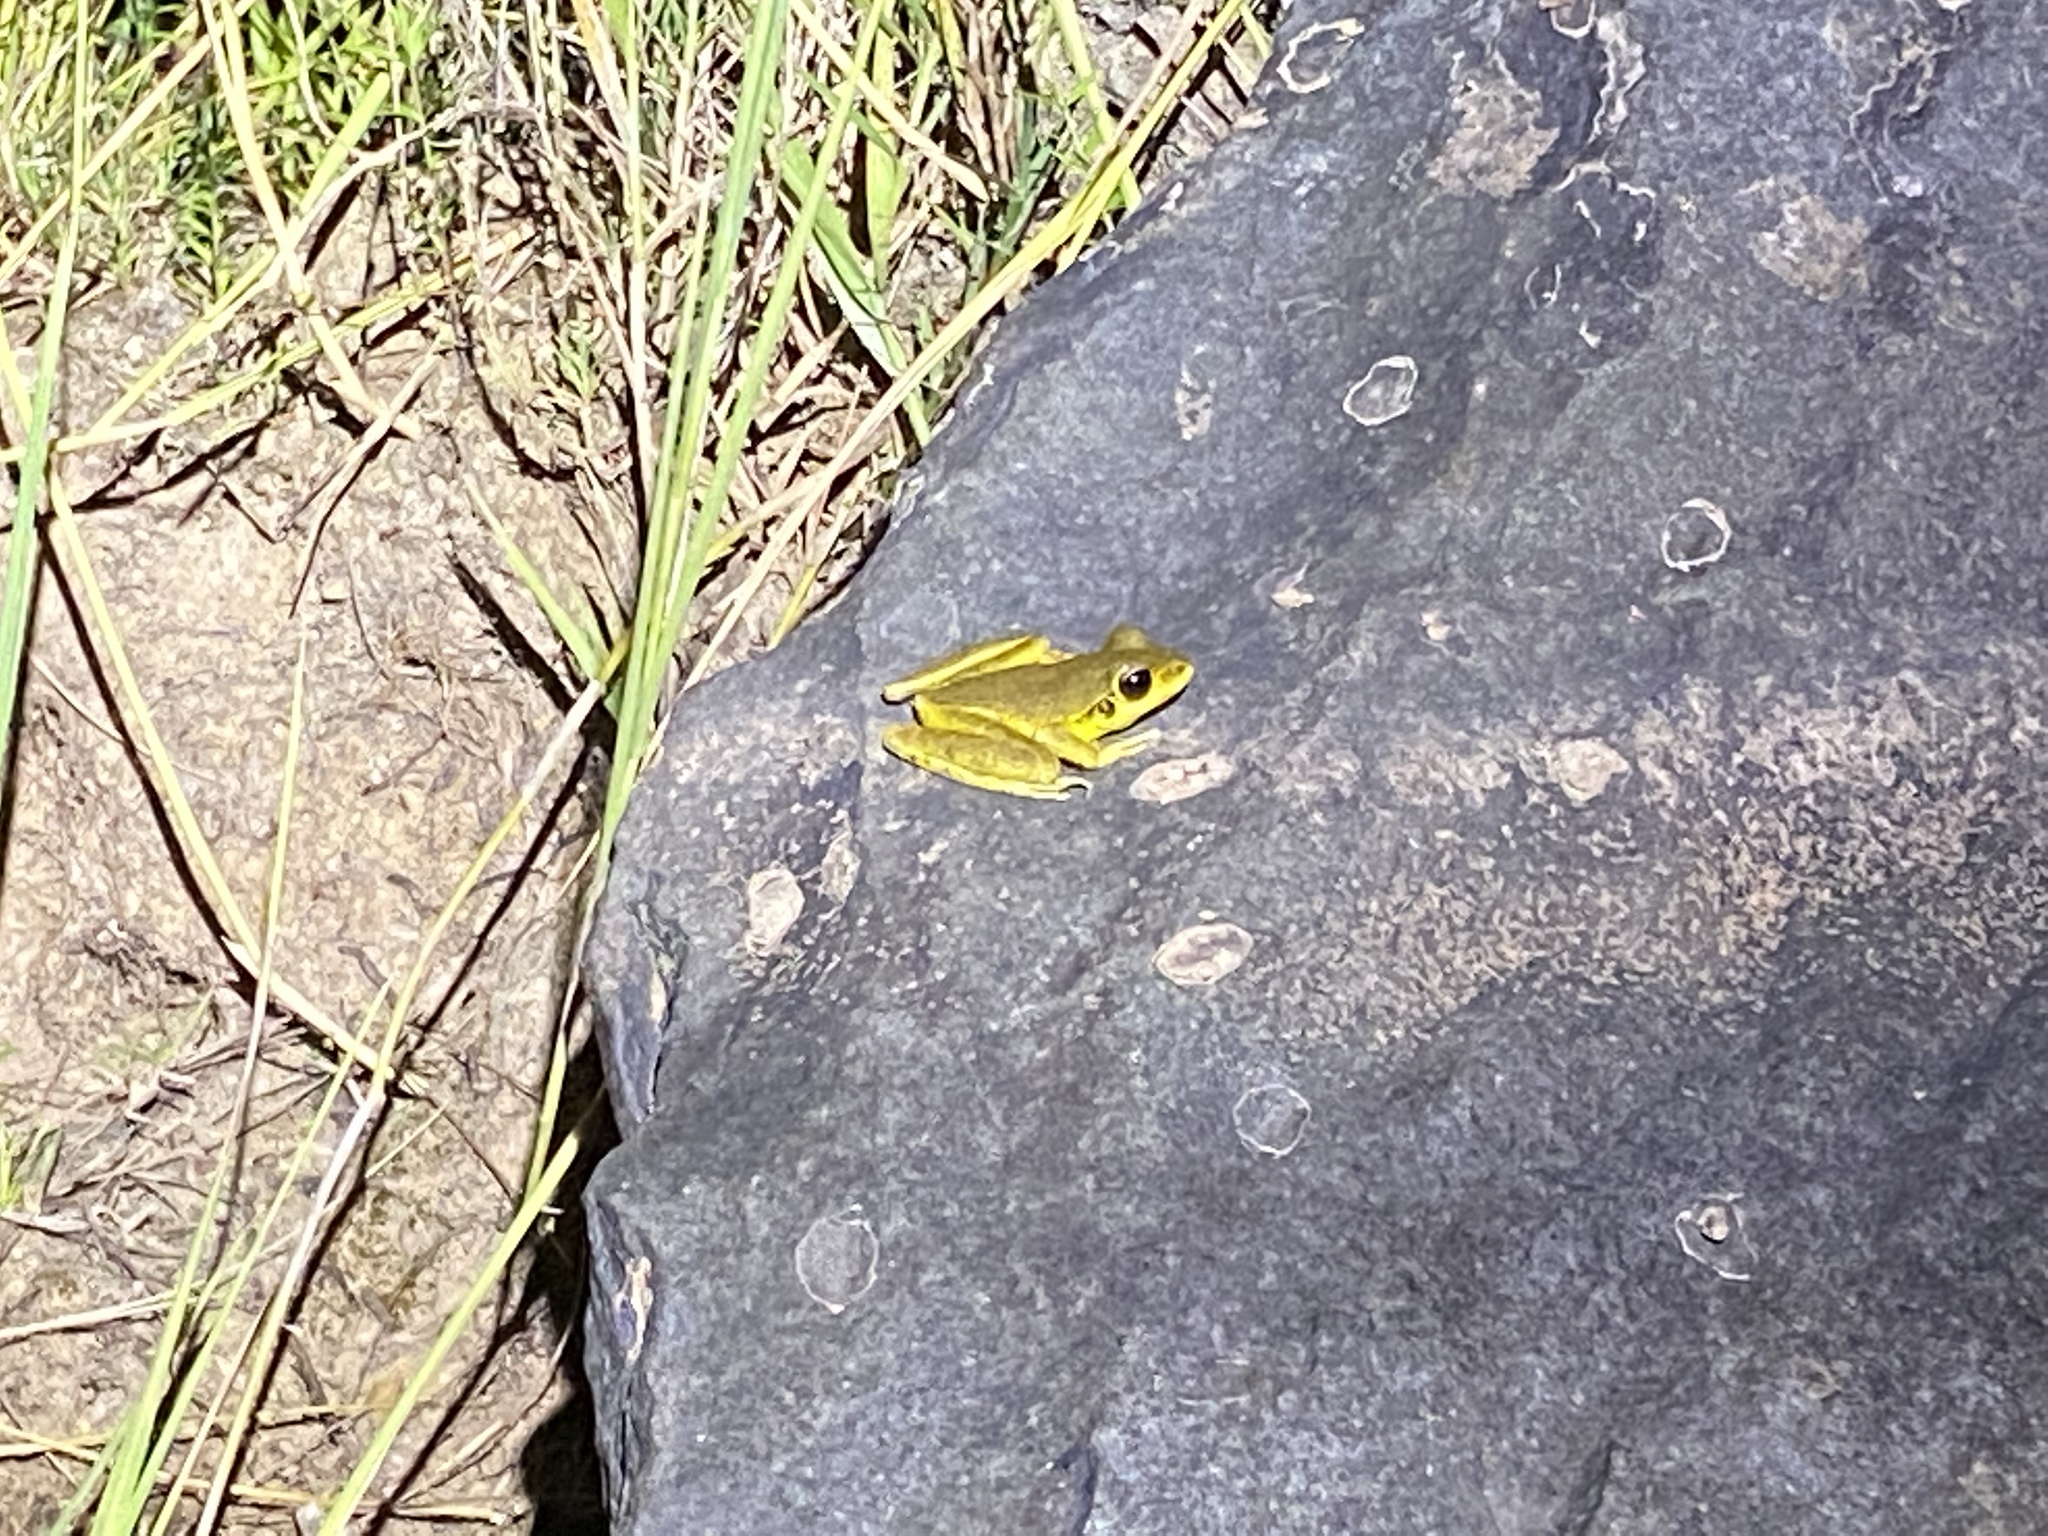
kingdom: Animalia
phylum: Chordata
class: Amphibia
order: Anura
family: Hylidae
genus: Ranoidea
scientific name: Ranoidea
